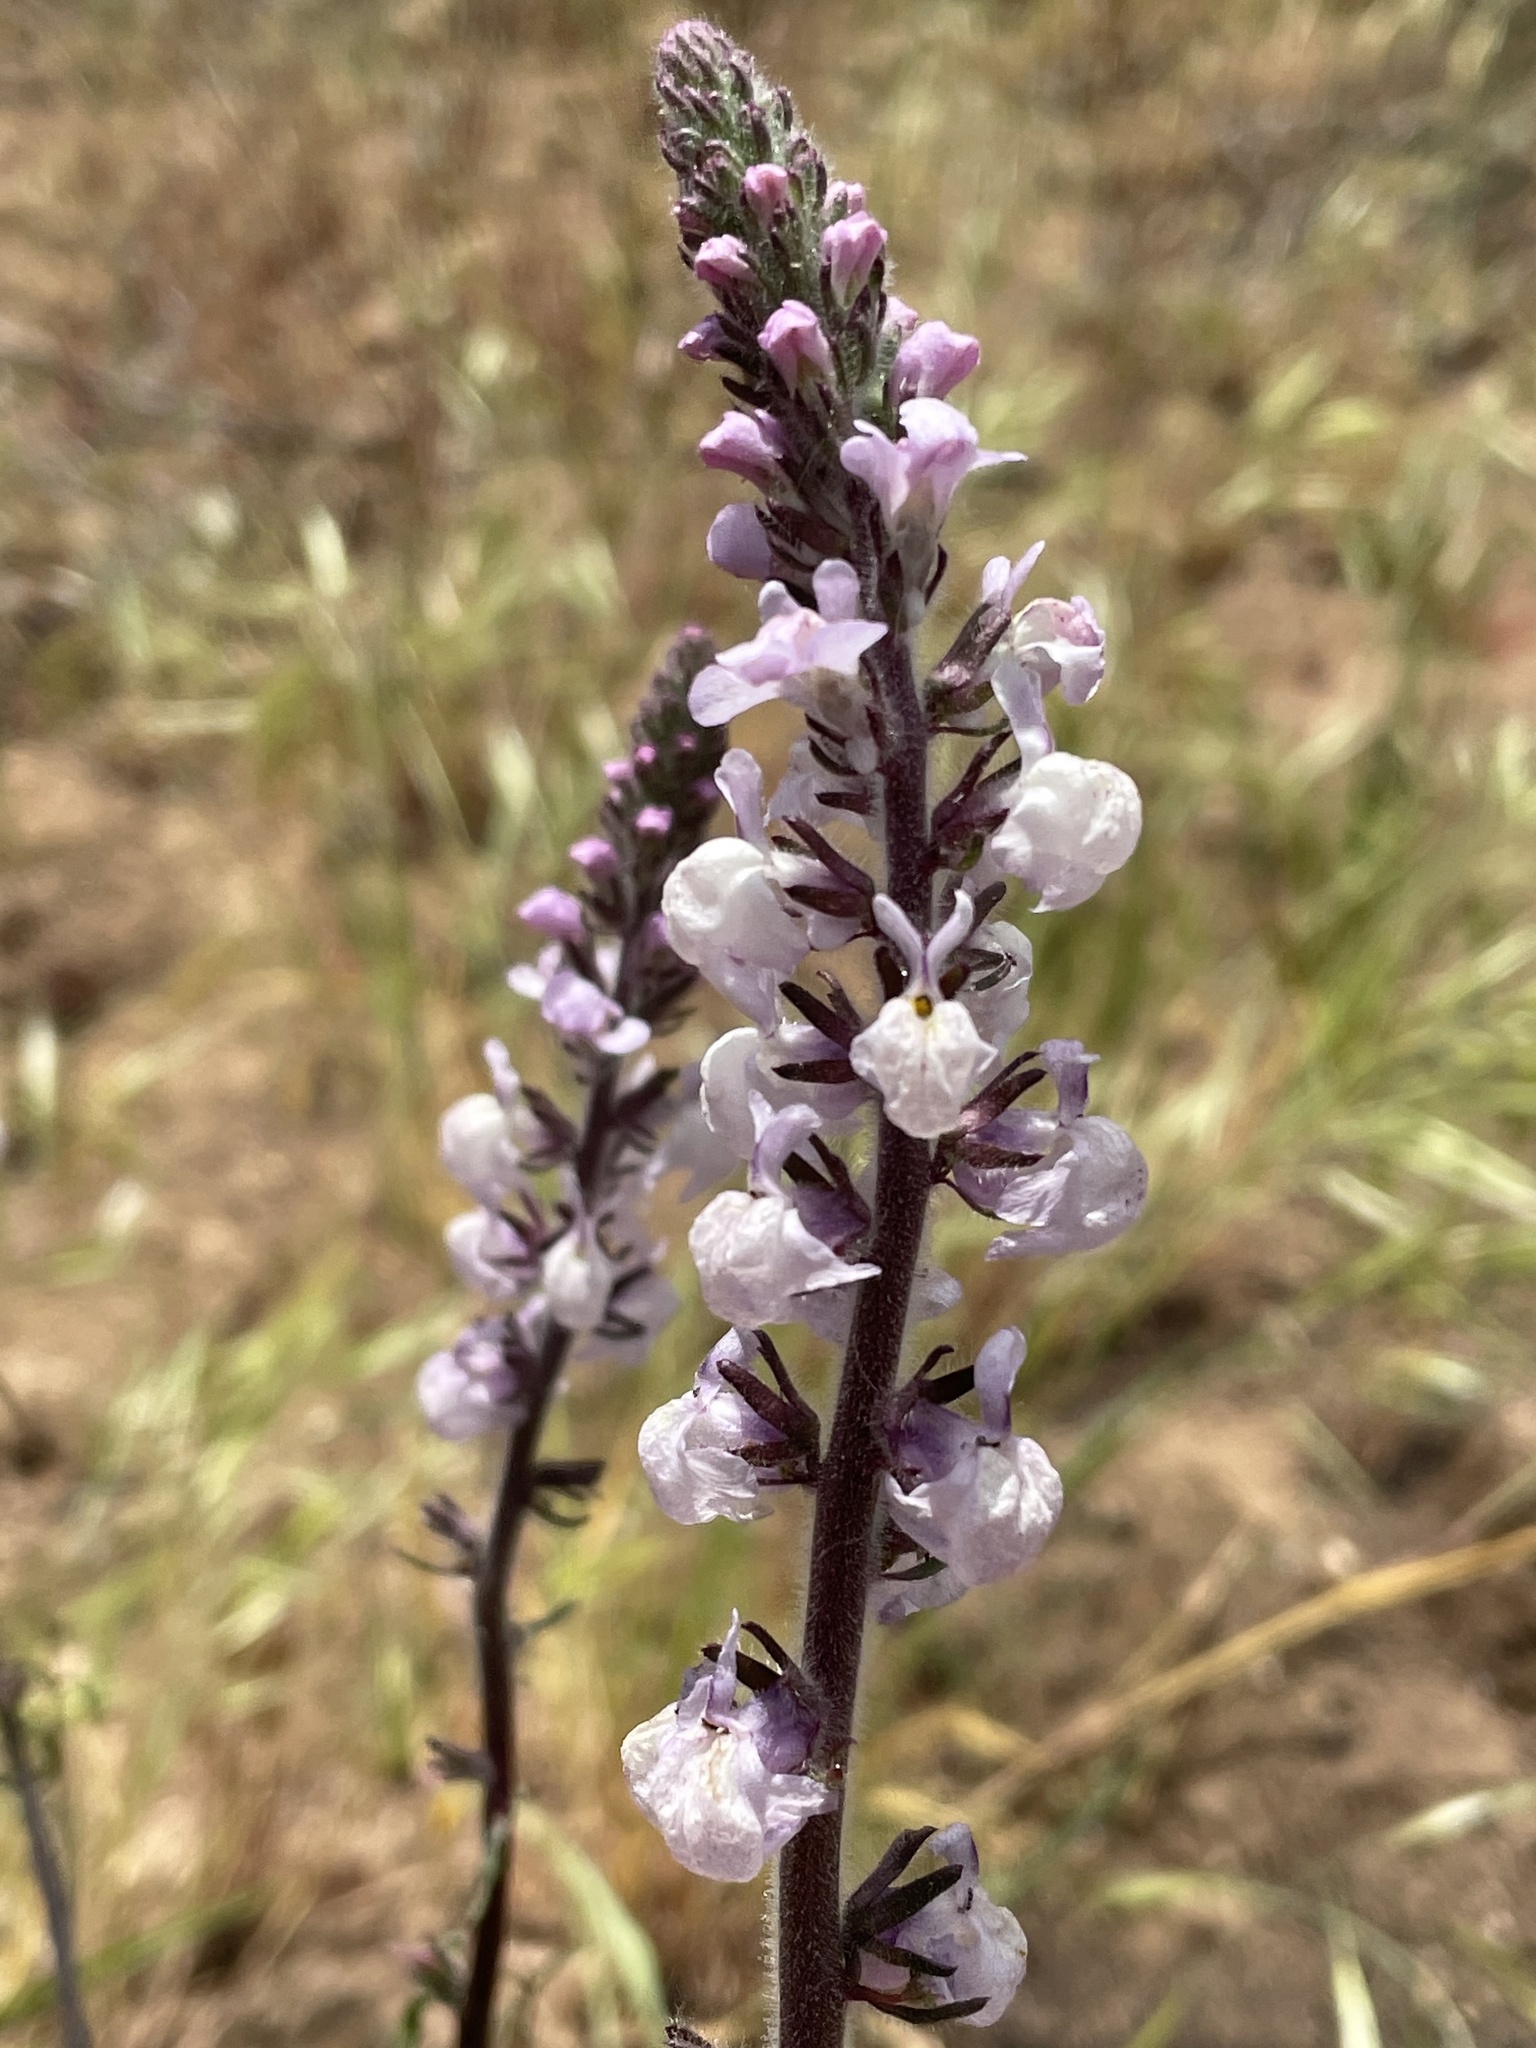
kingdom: Plantae
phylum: Tracheophyta
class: Magnoliopsida
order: Lamiales
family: Plantaginaceae
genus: Sairocarpus
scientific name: Sairocarpus coulterianus
